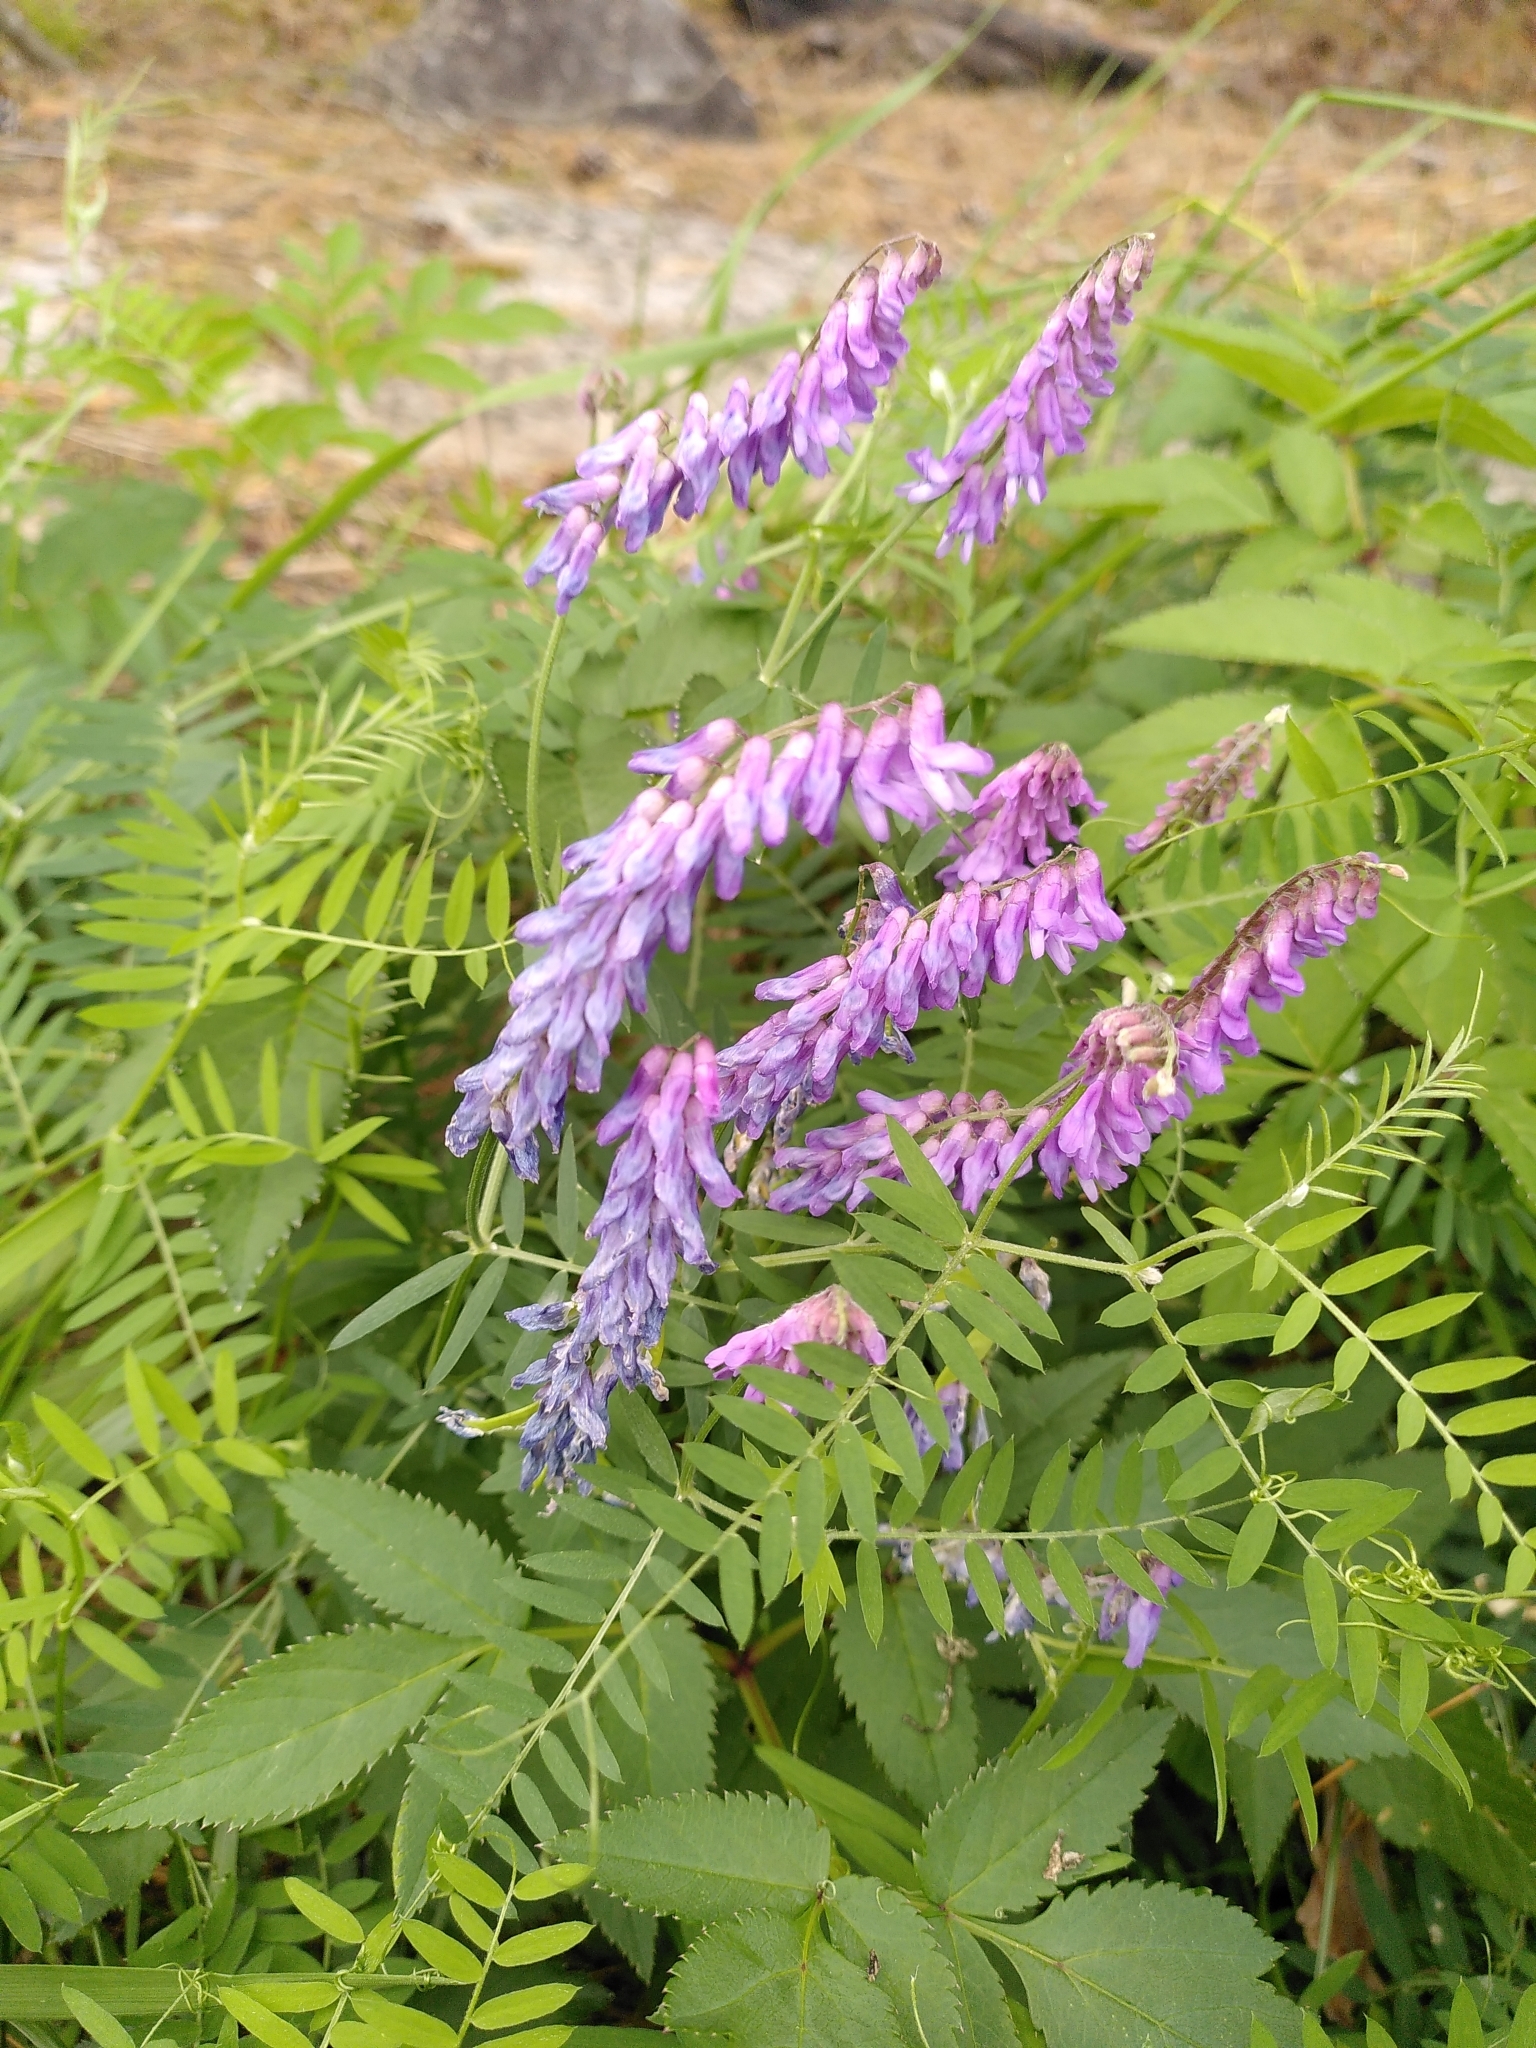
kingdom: Plantae
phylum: Tracheophyta
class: Magnoliopsida
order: Fabales
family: Fabaceae
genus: Vicia
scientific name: Vicia cracca
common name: Bird vetch
